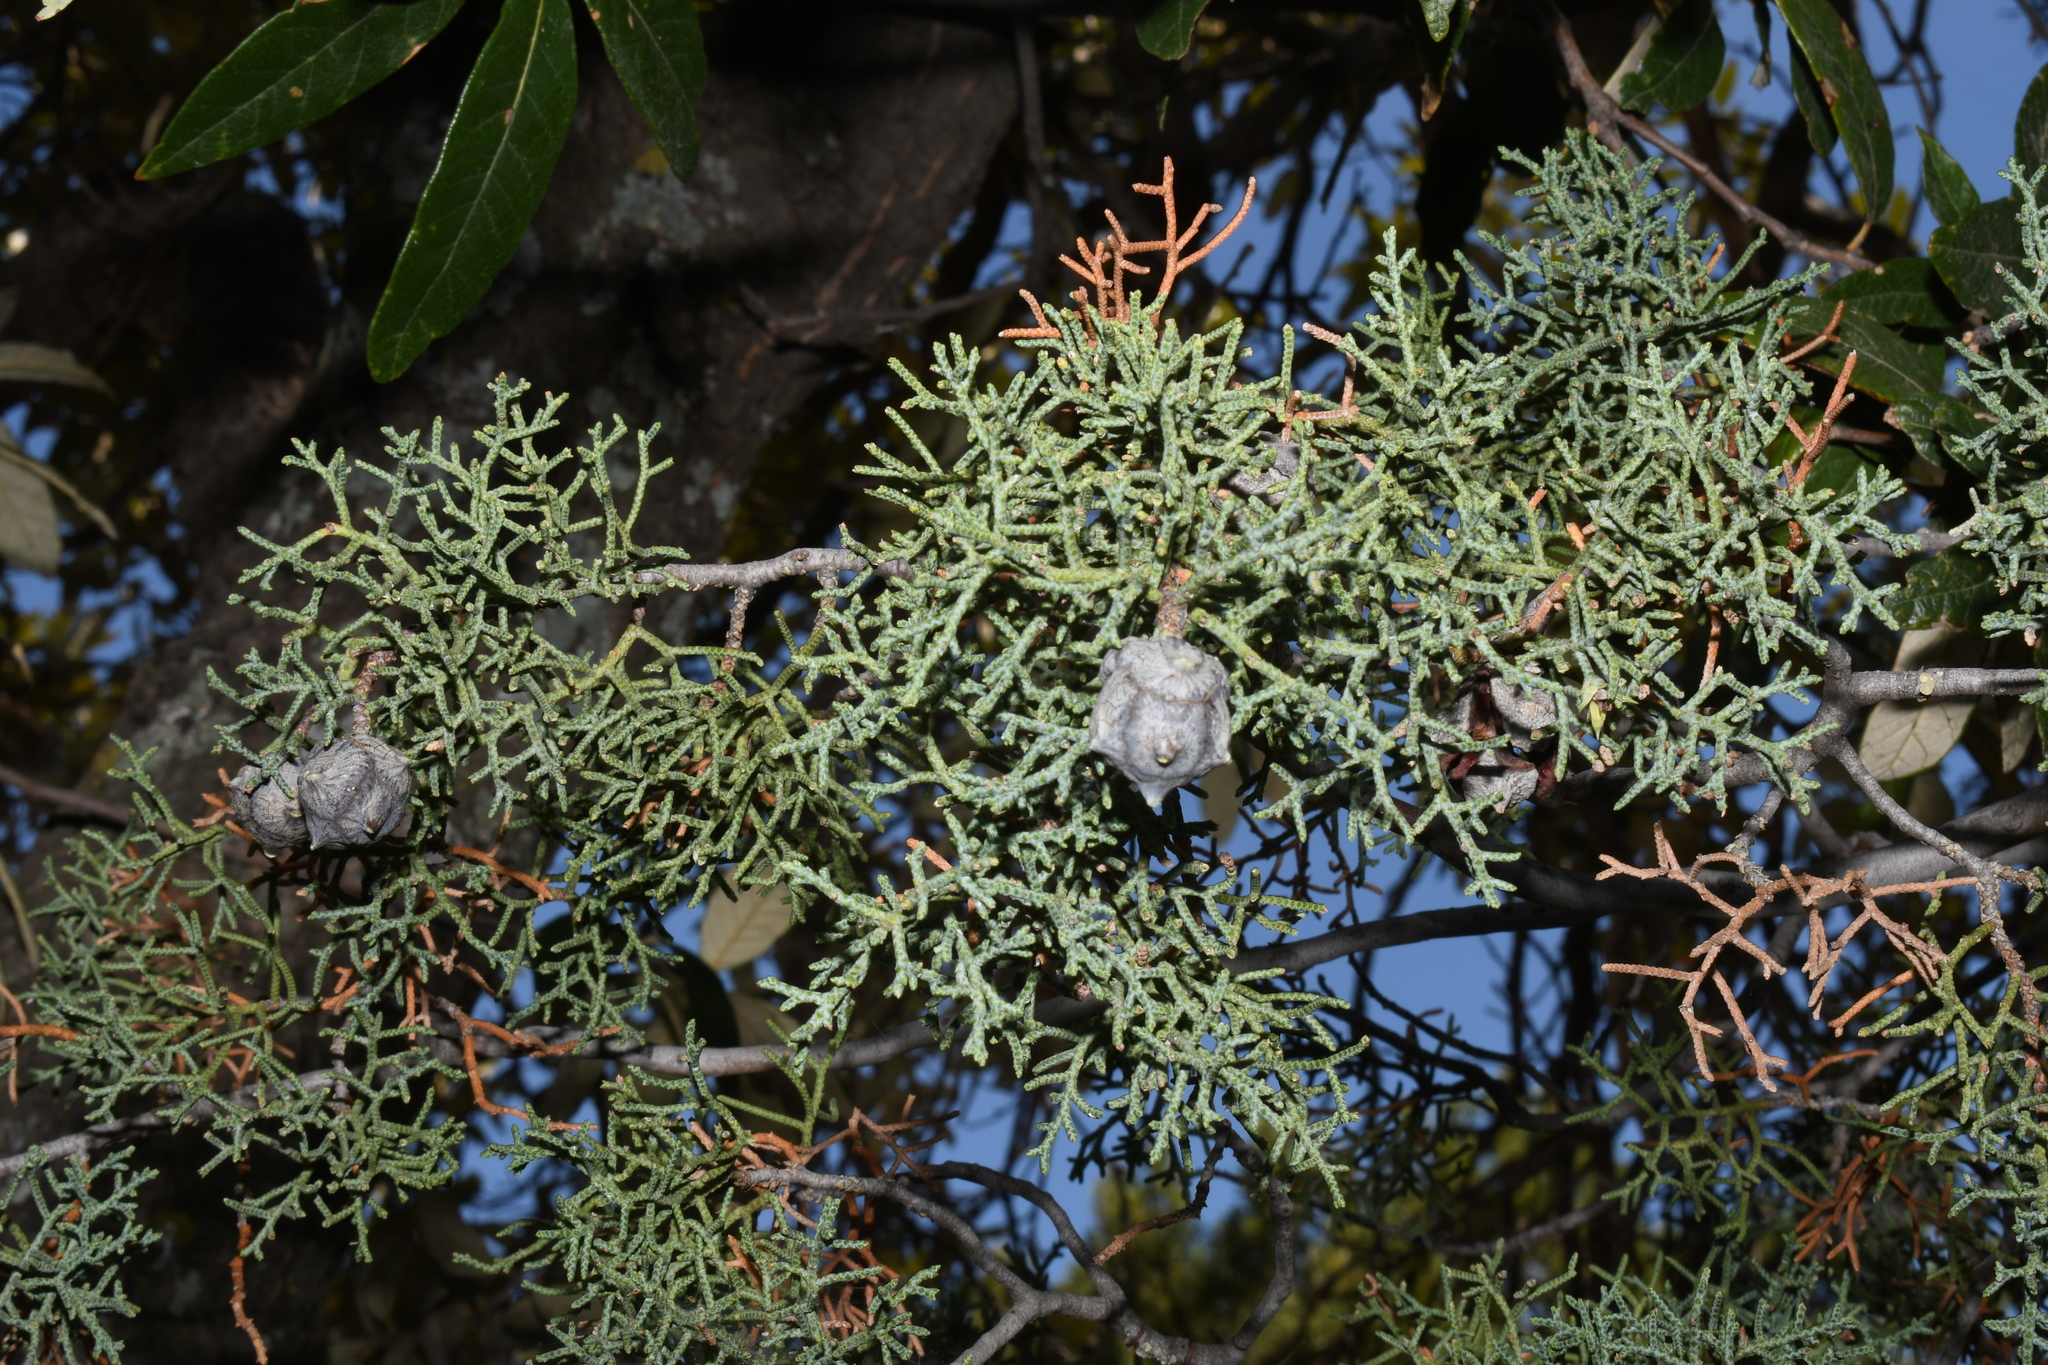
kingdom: Plantae
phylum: Tracheophyta
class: Pinopsida
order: Pinales
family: Cupressaceae
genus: Cupressus
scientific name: Cupressus arizonica
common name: Arizona cypress
